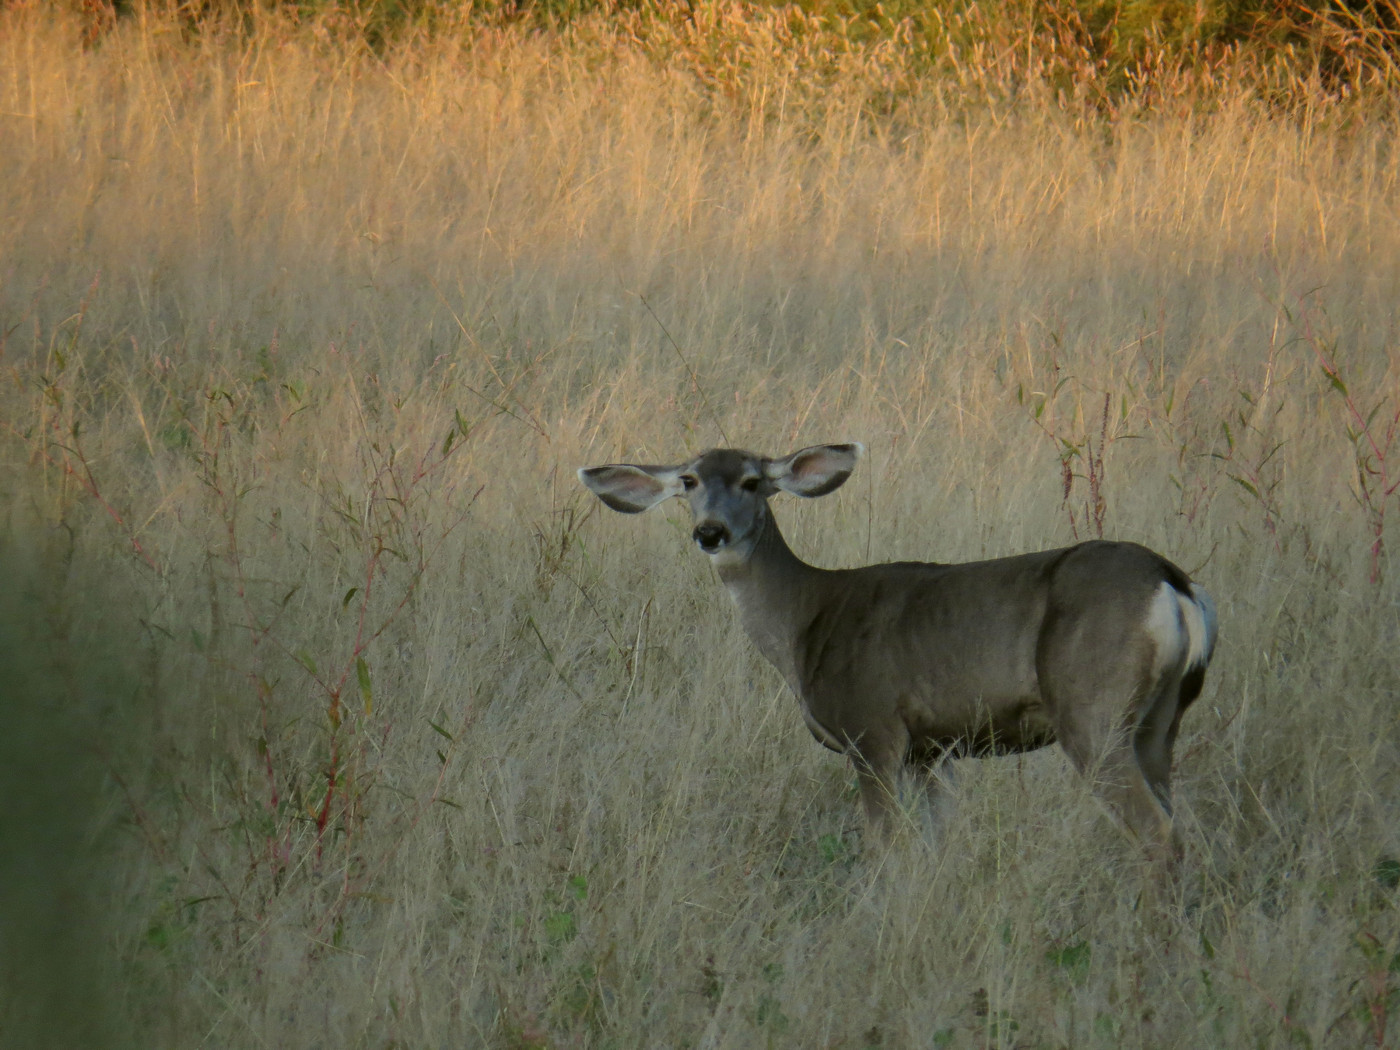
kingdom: Animalia
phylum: Chordata
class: Mammalia
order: Artiodactyla
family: Cervidae
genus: Odocoileus
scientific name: Odocoileus hemionus
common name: Mule deer
